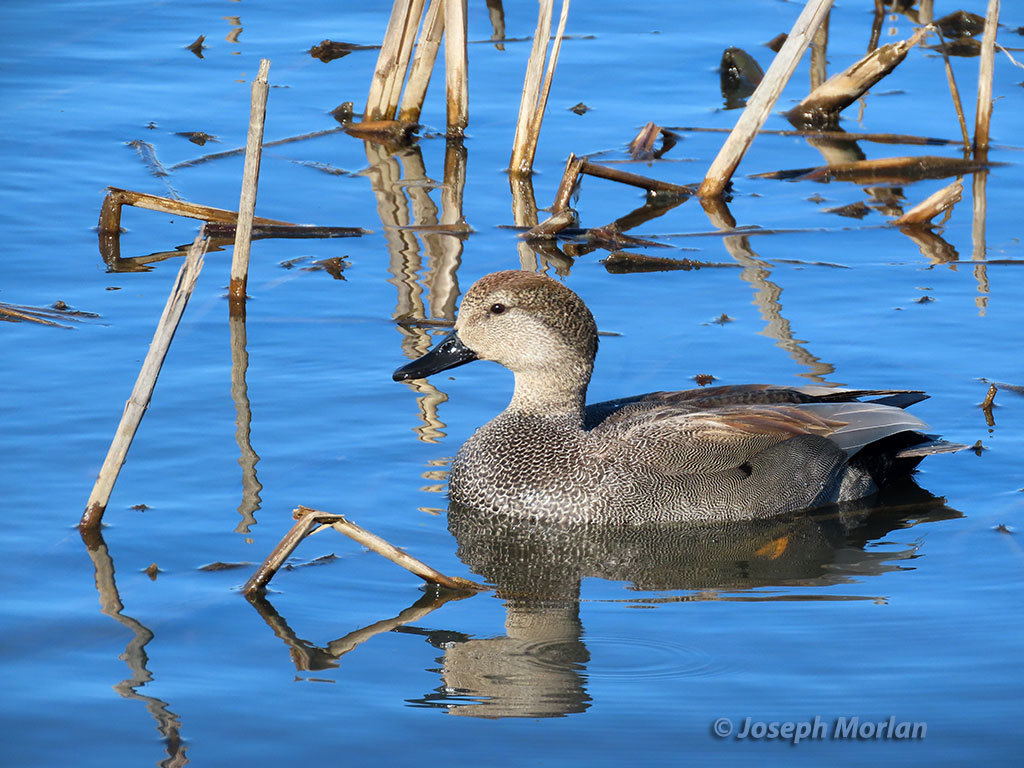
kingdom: Animalia
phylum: Chordata
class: Aves
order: Anseriformes
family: Anatidae
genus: Mareca
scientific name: Mareca strepera
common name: Gadwall
